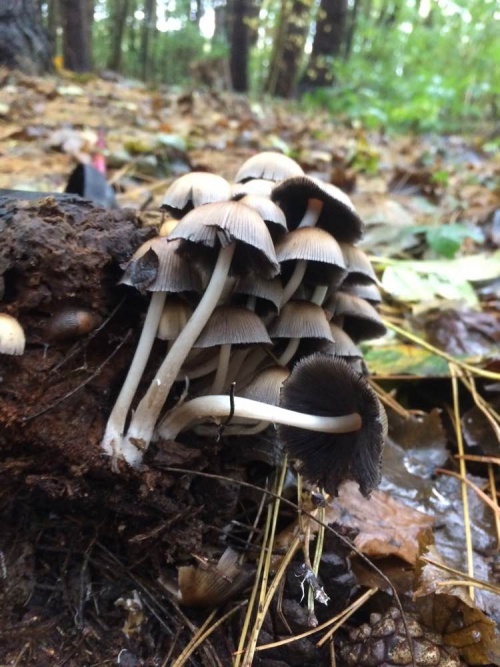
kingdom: Fungi
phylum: Basidiomycota
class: Agaricomycetes
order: Agaricales
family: Psathyrellaceae
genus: Coprinellus
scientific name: Coprinellus micaceus
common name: Glistening ink-cap
